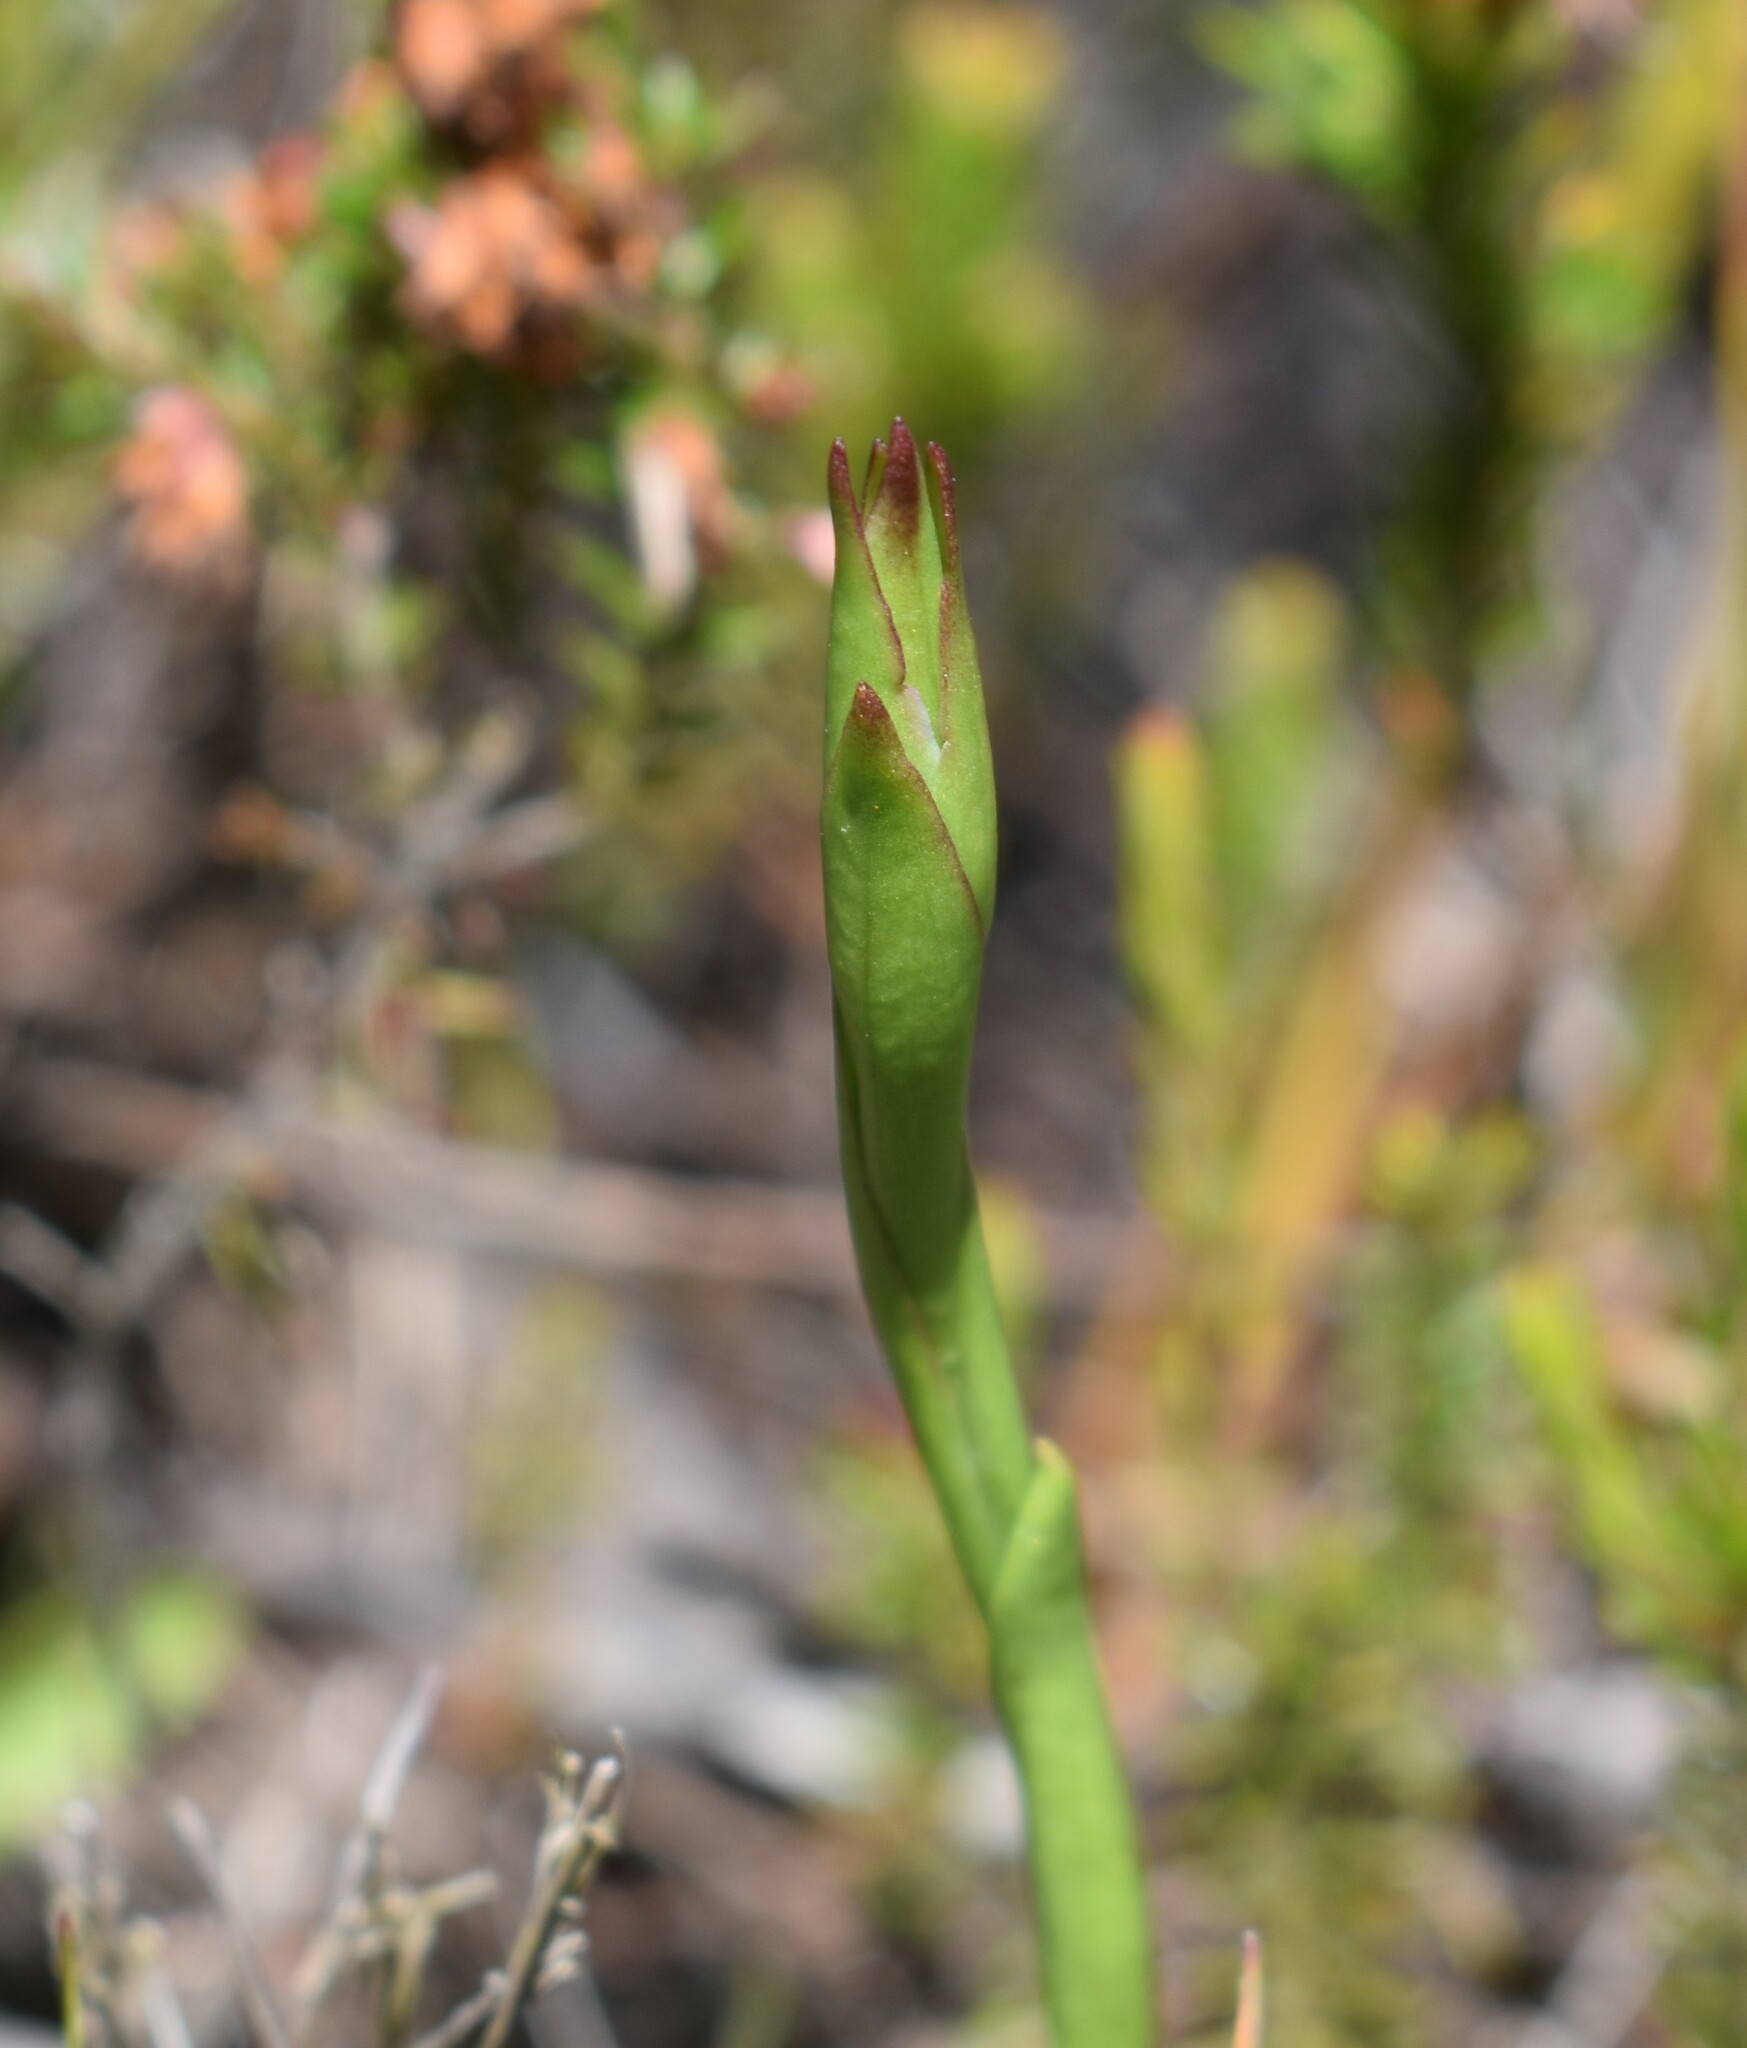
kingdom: Plantae
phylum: Tracheophyta
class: Liliopsida
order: Asparagales
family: Orchidaceae
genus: Disa
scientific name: Disa racemosa
